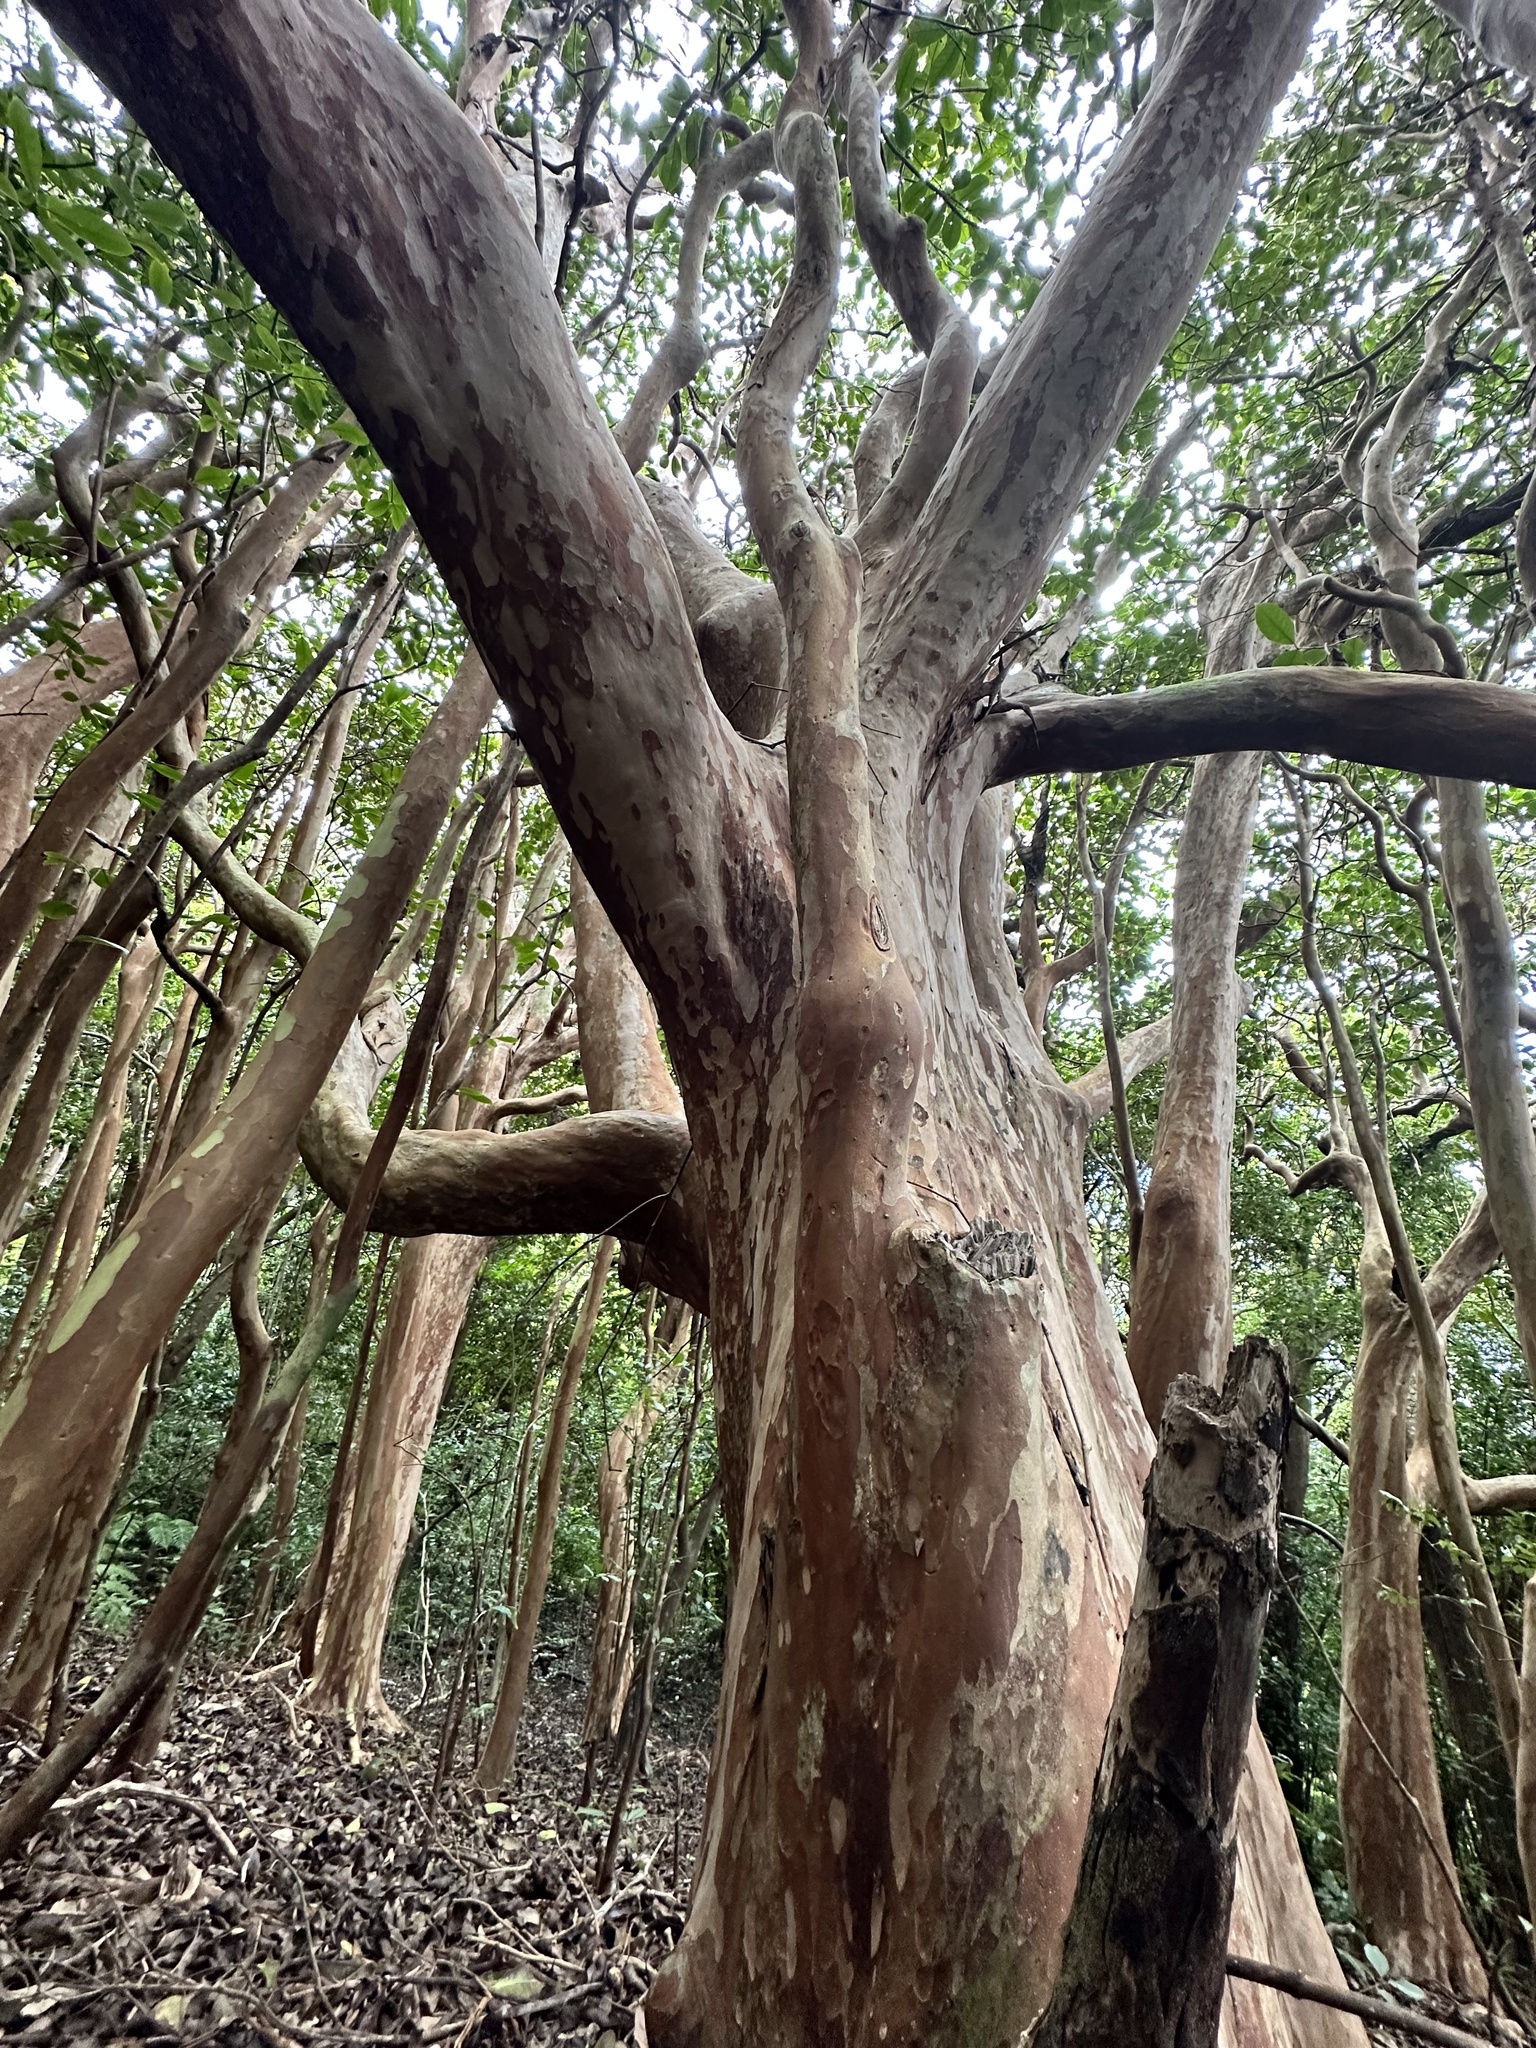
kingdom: Plantae
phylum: Tracheophyta
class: Magnoliopsida
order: Myrtales
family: Myrtaceae
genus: Psidium
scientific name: Psidium guajava
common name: Guava
